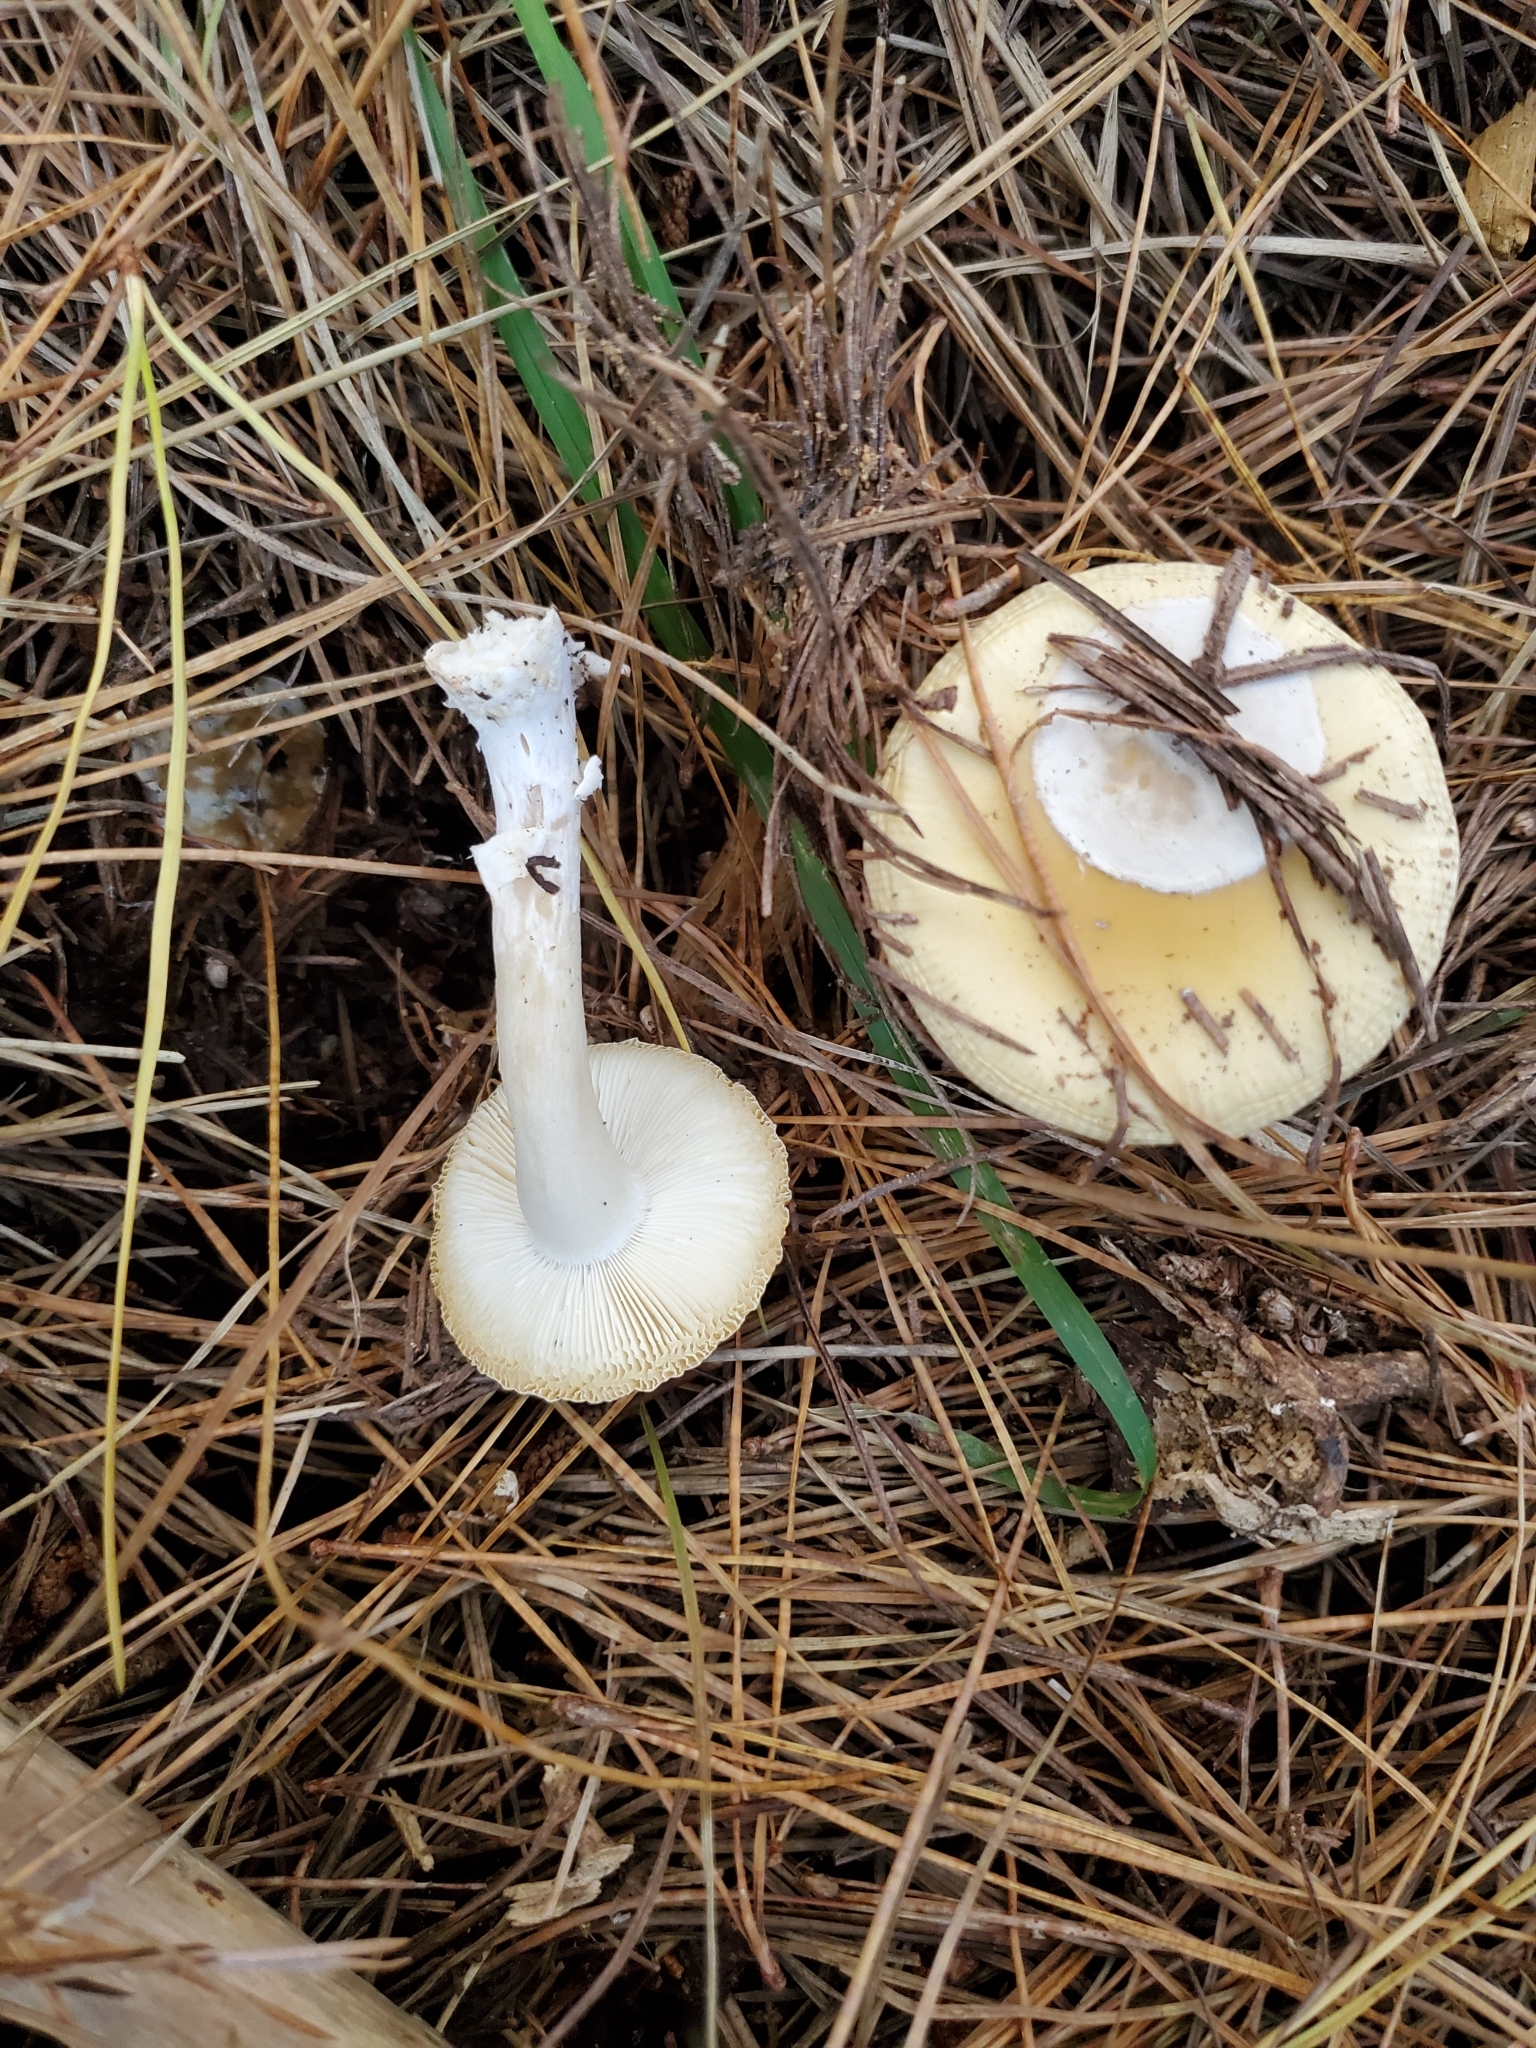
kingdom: Fungi
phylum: Basidiomycota
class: Agaricomycetes
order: Agaricales
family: Amanitaceae
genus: Amanita
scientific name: Amanita gemmata
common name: Jewelled amanita
